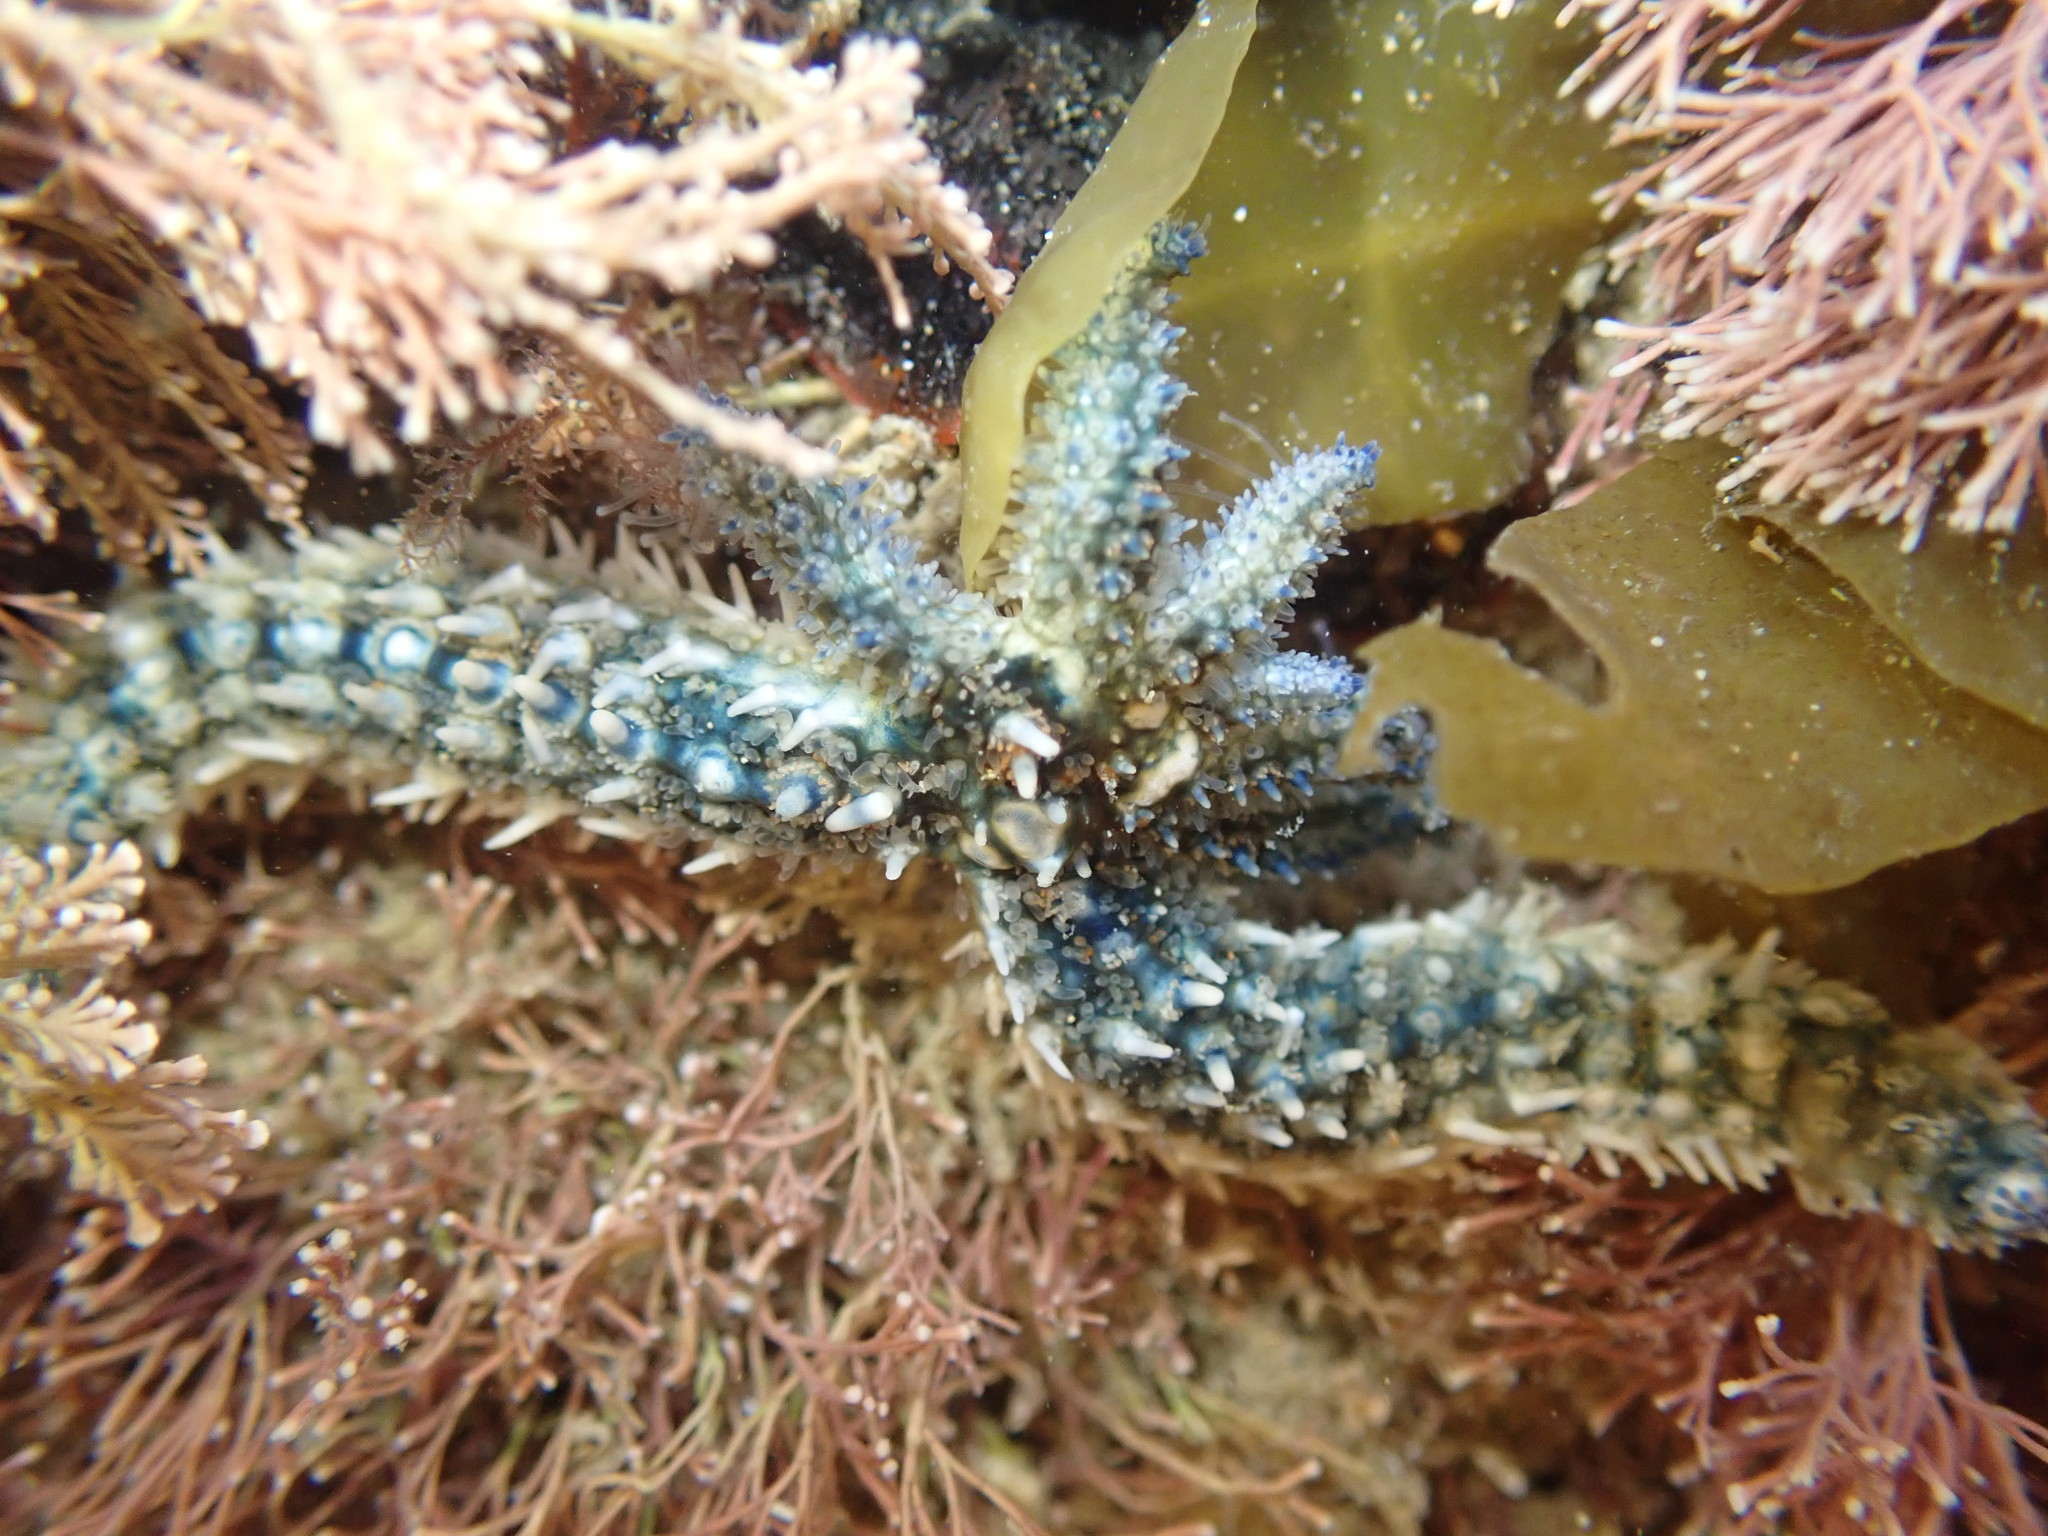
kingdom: Animalia
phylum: Echinodermata
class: Asteroidea
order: Forcipulatida
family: Asteriidae
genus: Coscinasterias
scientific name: Coscinasterias muricata
